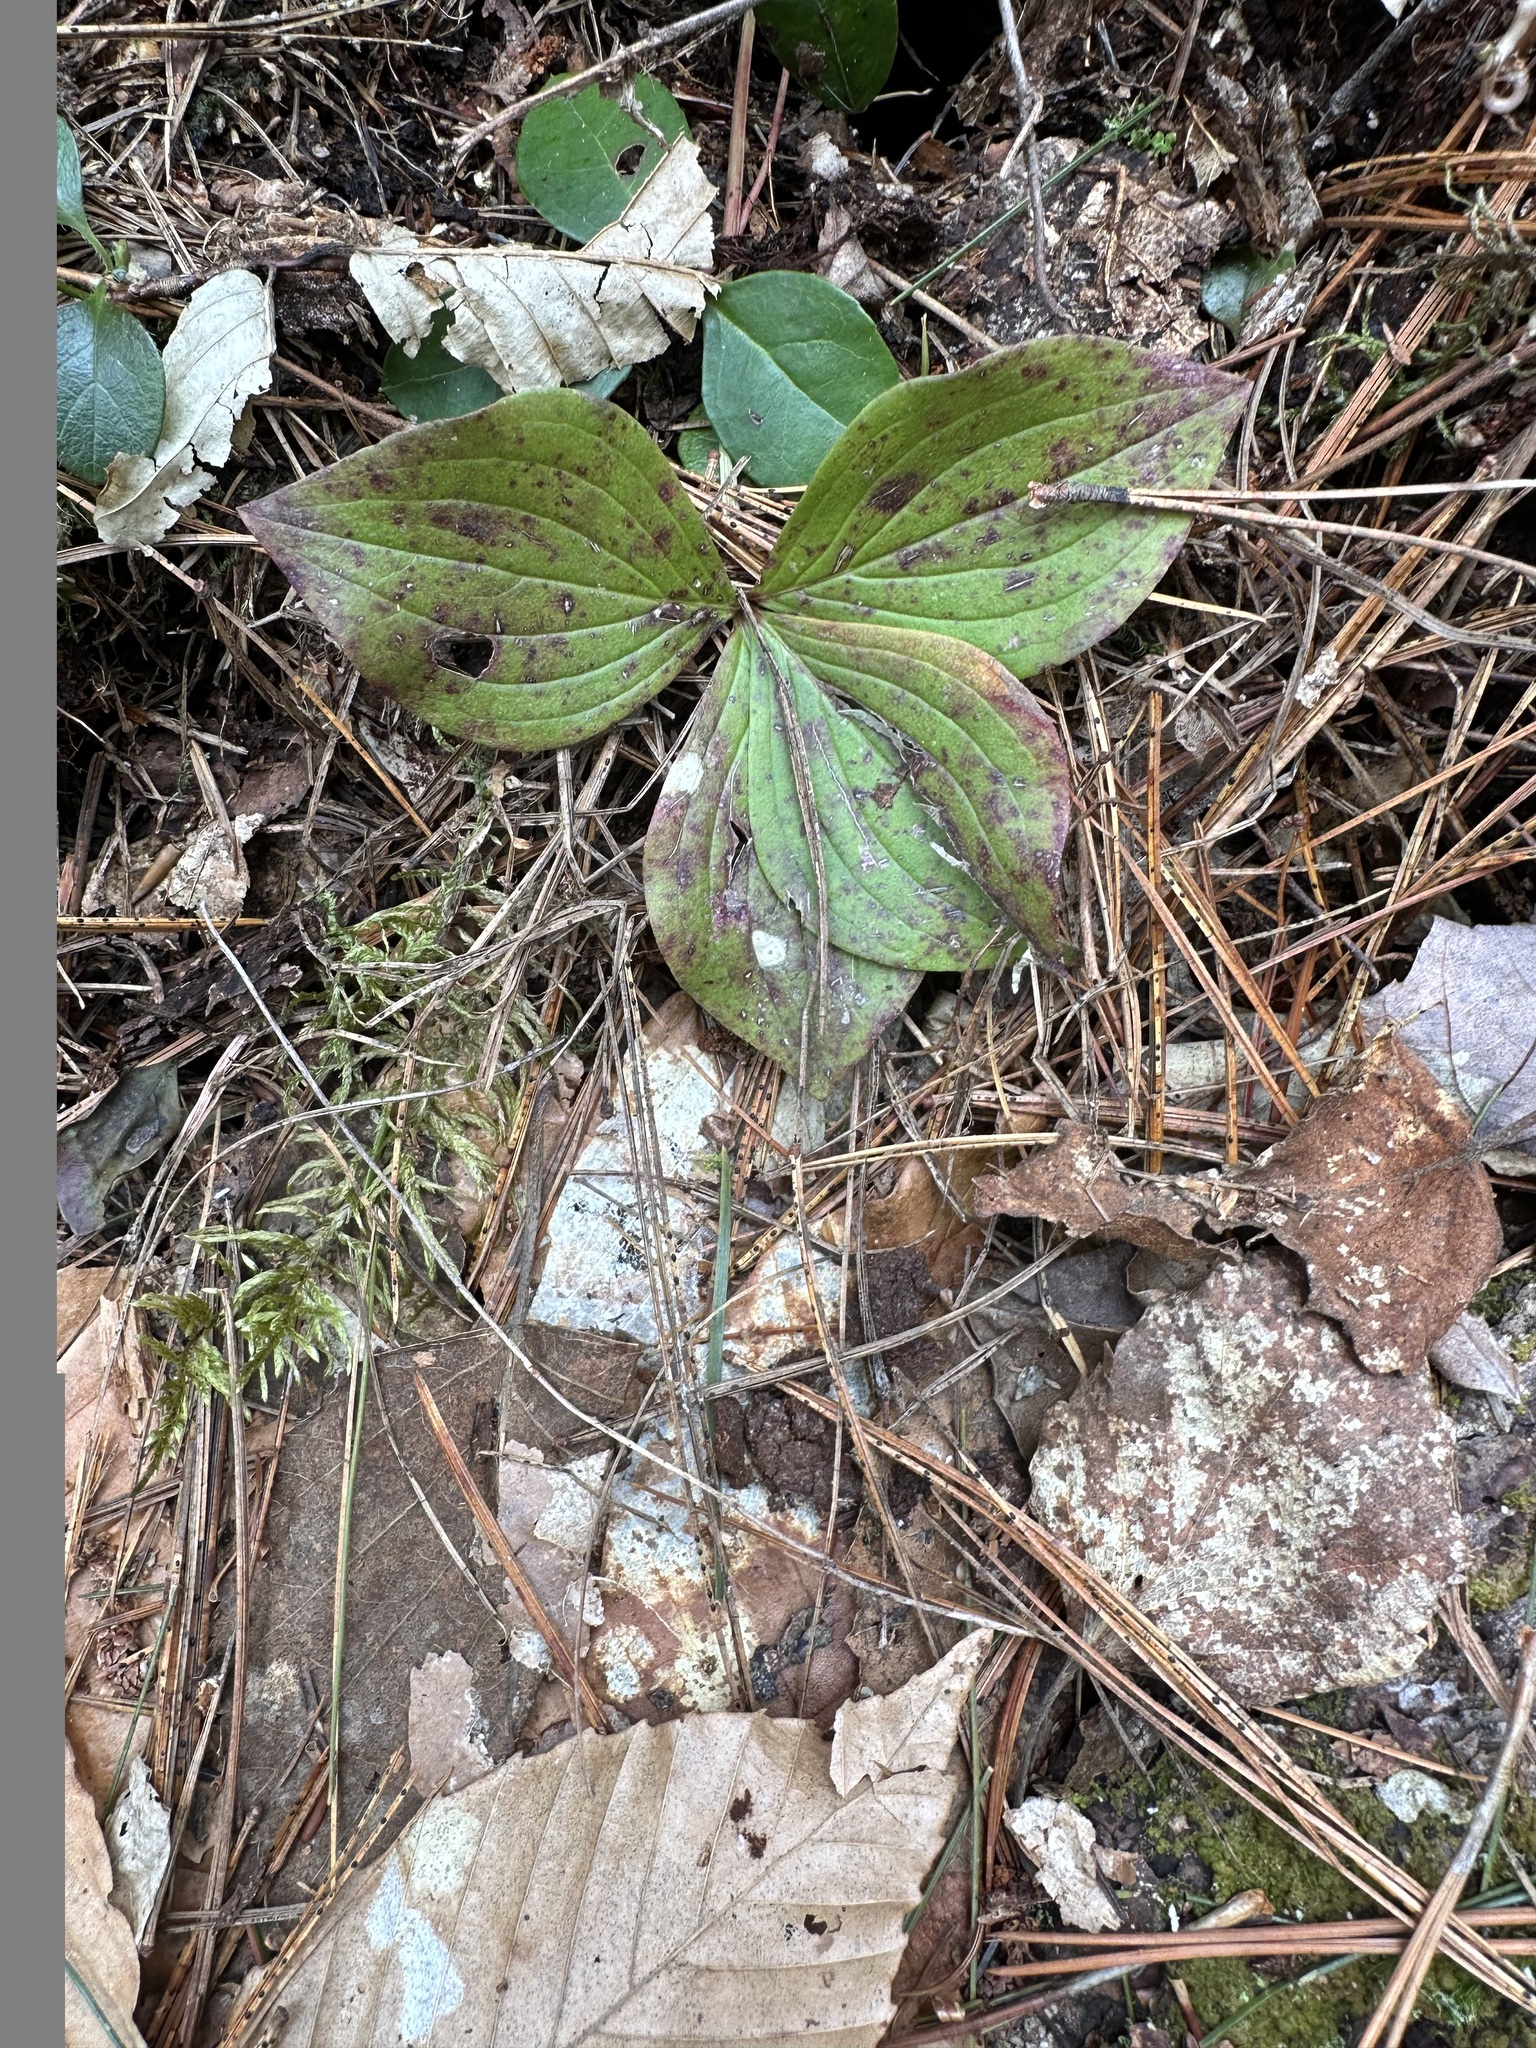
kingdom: Plantae
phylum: Tracheophyta
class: Magnoliopsida
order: Cornales
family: Cornaceae
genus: Cornus
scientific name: Cornus canadensis
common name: Creeping dogwood
